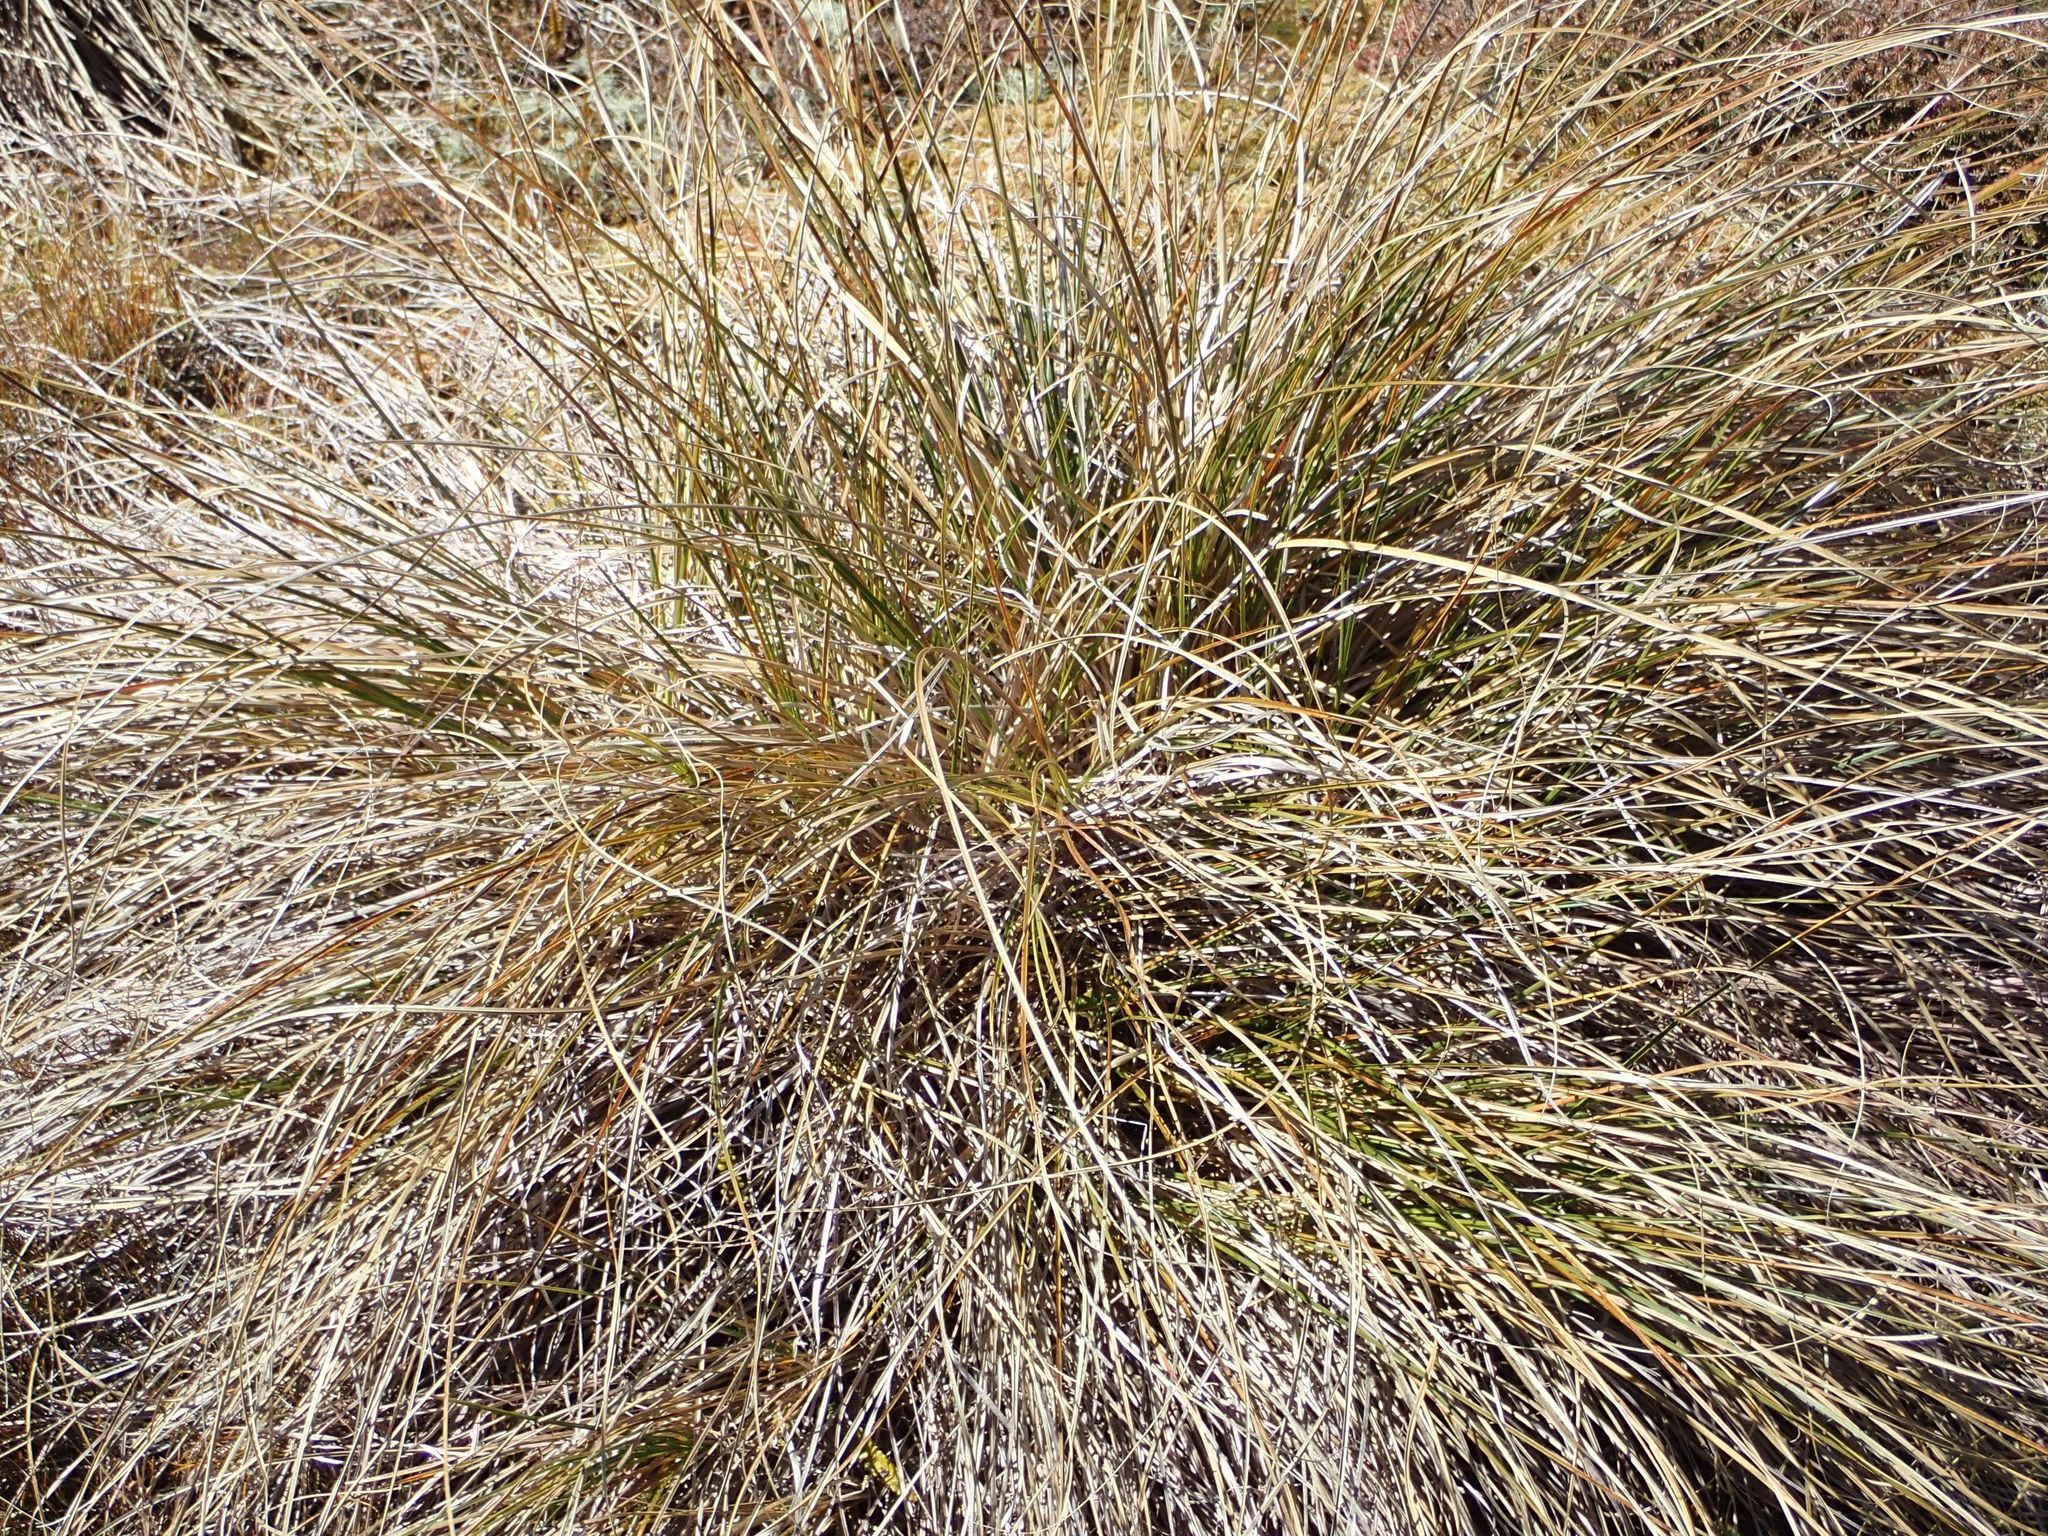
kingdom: Plantae
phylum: Tracheophyta
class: Liliopsida
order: Poales
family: Poaceae
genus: Chionochloa
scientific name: Chionochloa macra
